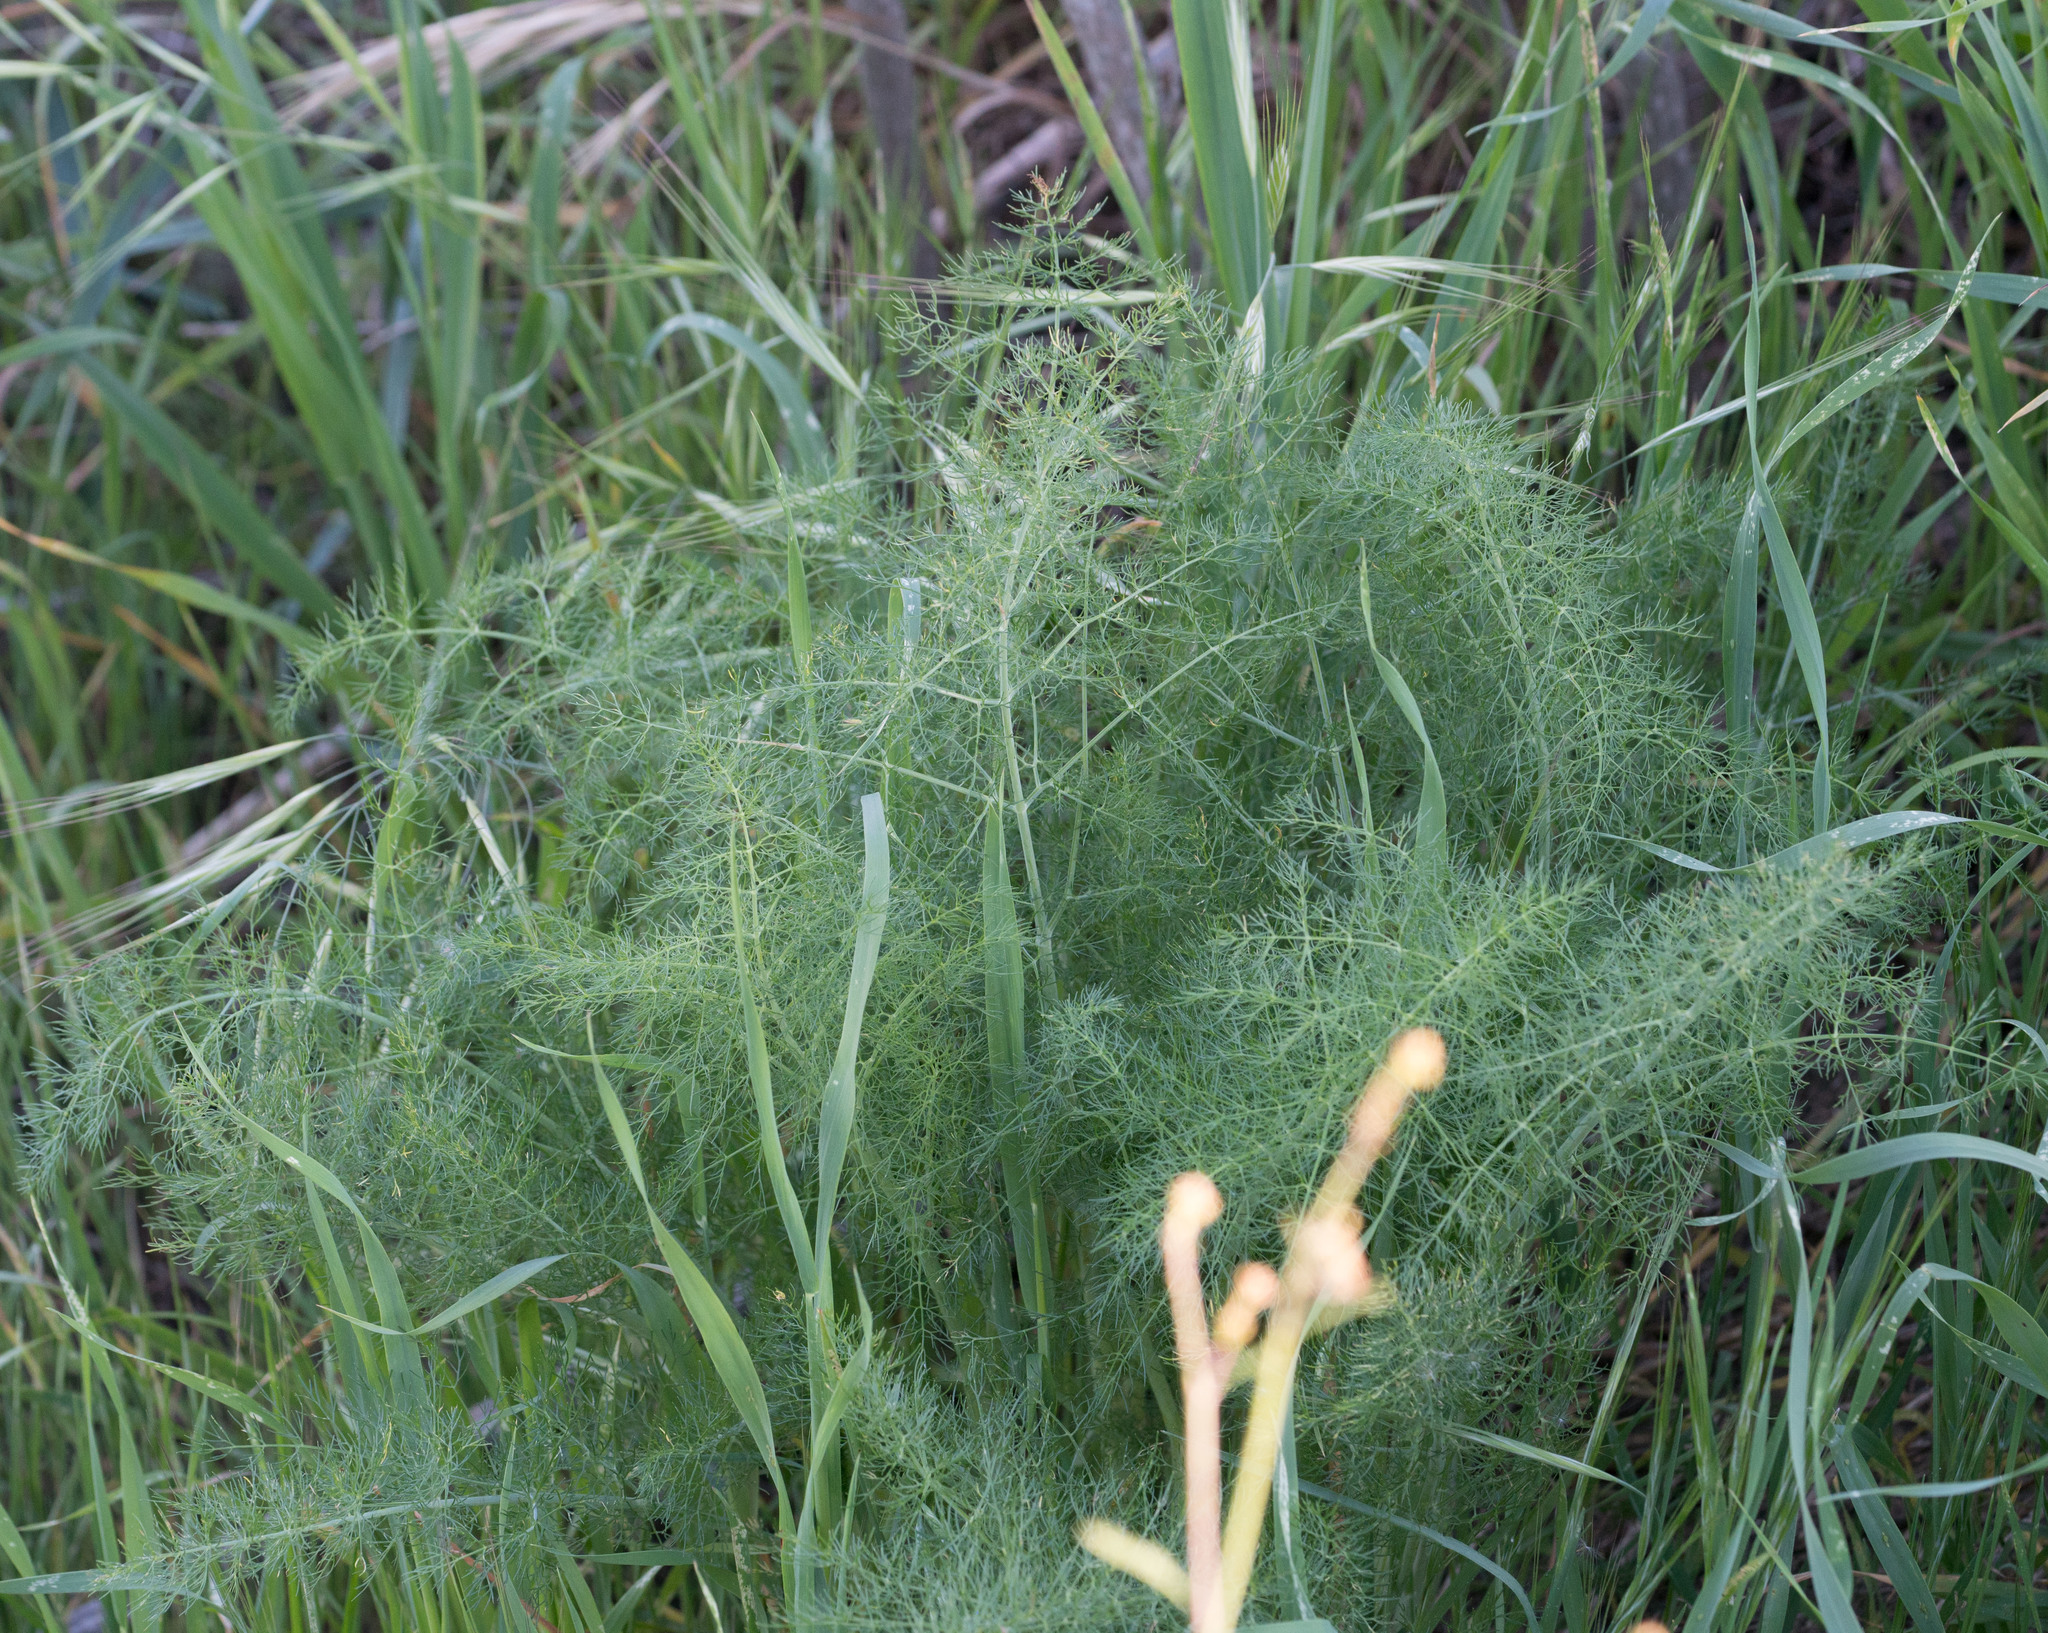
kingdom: Plantae
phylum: Tracheophyta
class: Magnoliopsida
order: Apiales
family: Apiaceae
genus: Foeniculum
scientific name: Foeniculum vulgare
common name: Fennel
